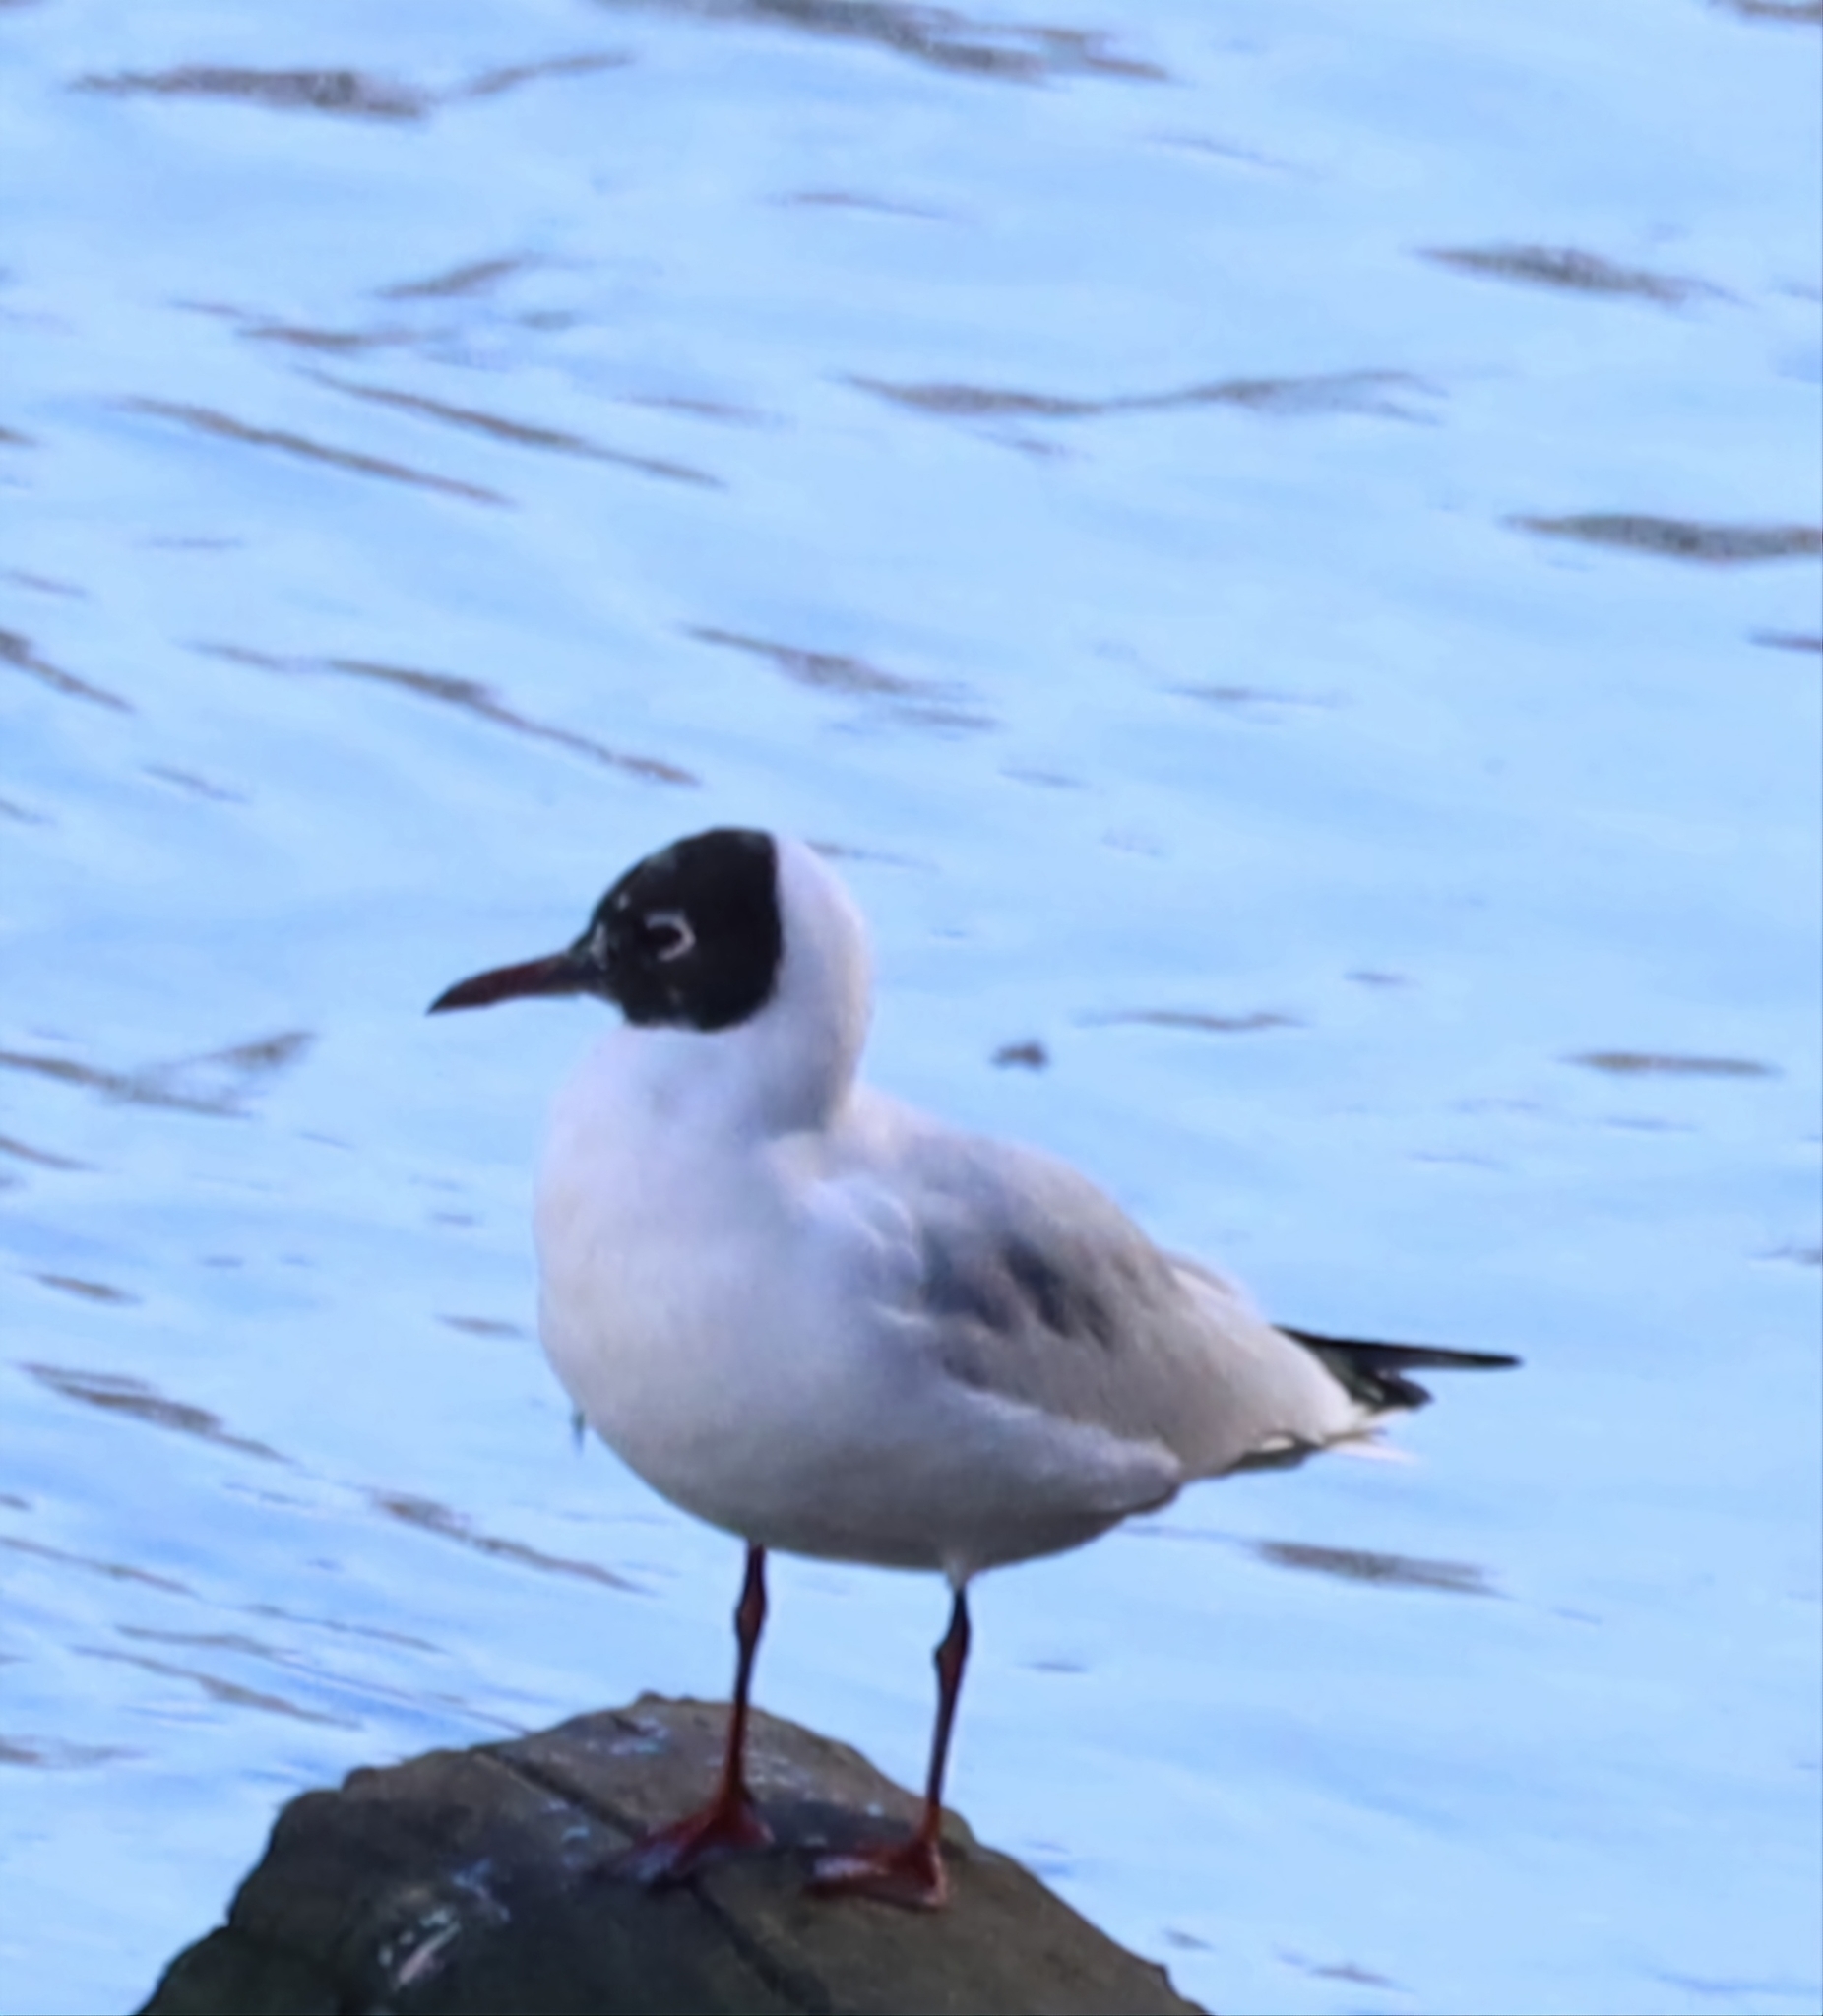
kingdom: Animalia
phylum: Chordata
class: Aves
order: Charadriiformes
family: Laridae
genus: Chroicocephalus
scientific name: Chroicocephalus ridibundus
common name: Black-headed gull
